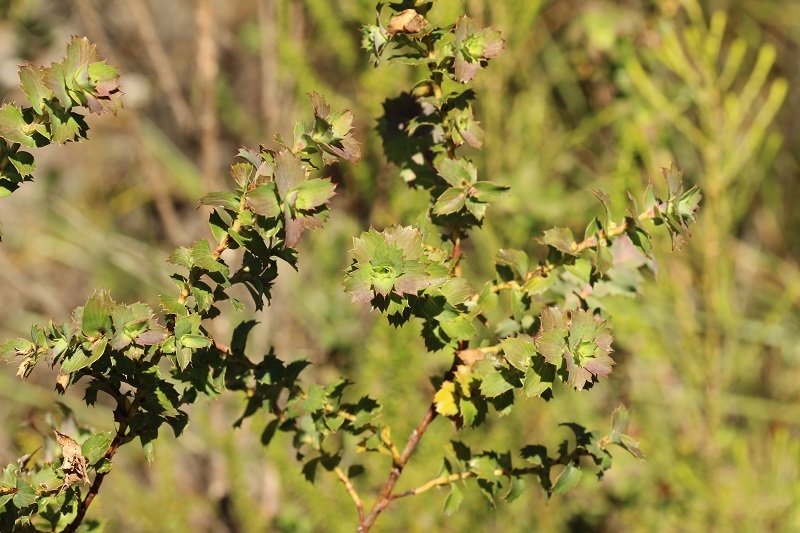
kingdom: Plantae
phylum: Tracheophyta
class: Magnoliopsida
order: Rosales
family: Rosaceae
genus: Cliffortia
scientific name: Cliffortia ilicifolia
